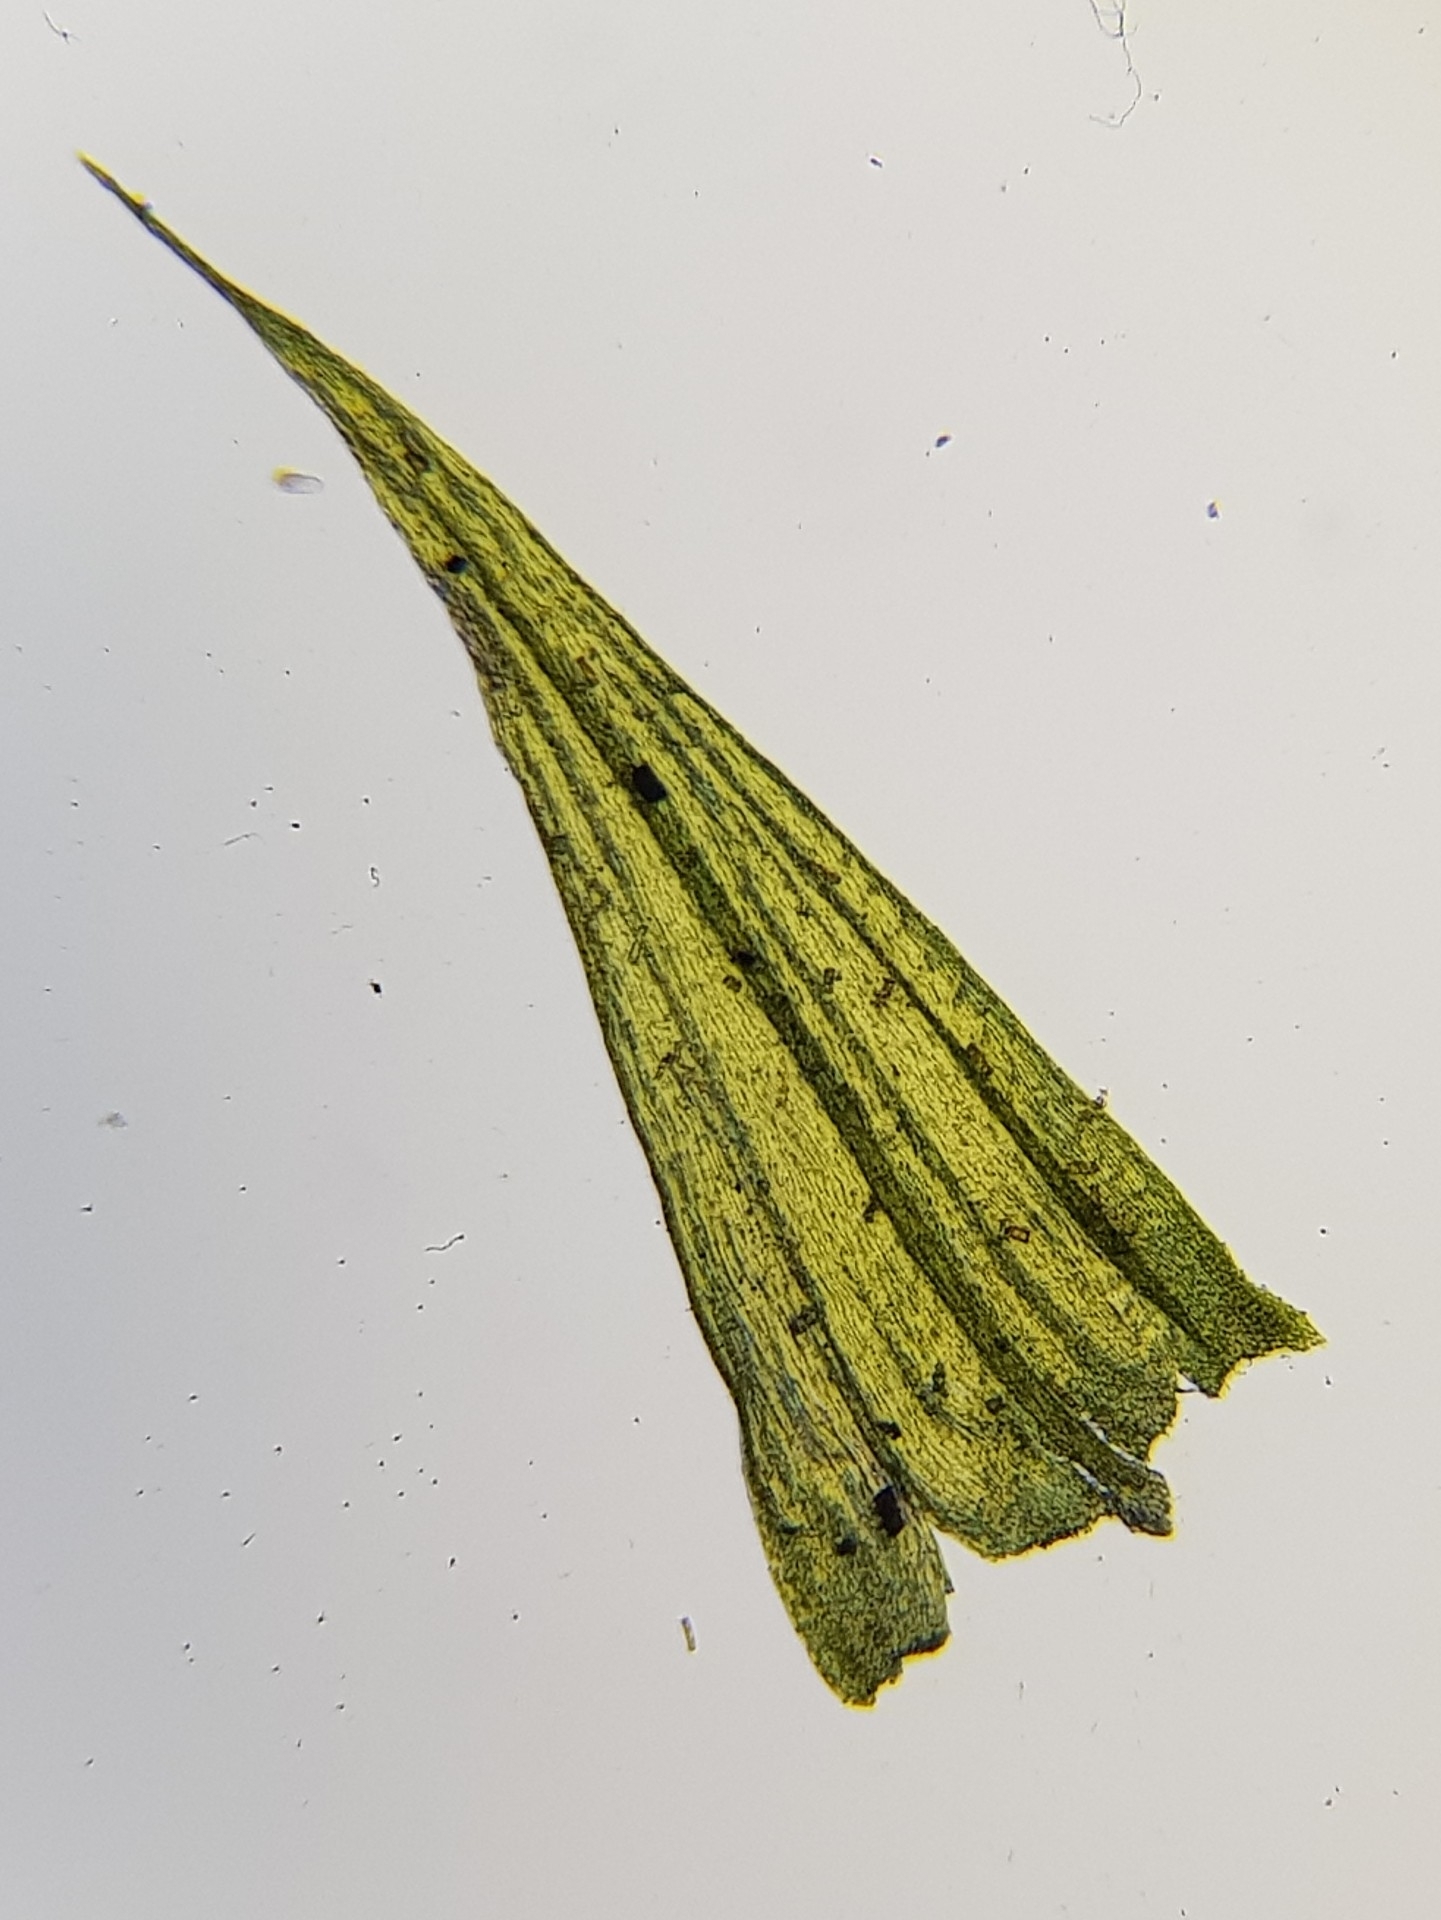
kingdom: Plantae
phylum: Bryophyta
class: Bryopsida
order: Hypnales
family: Brachytheciaceae
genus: Homalothecium
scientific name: Homalothecium sericeum
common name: Silky wall feather-moss
